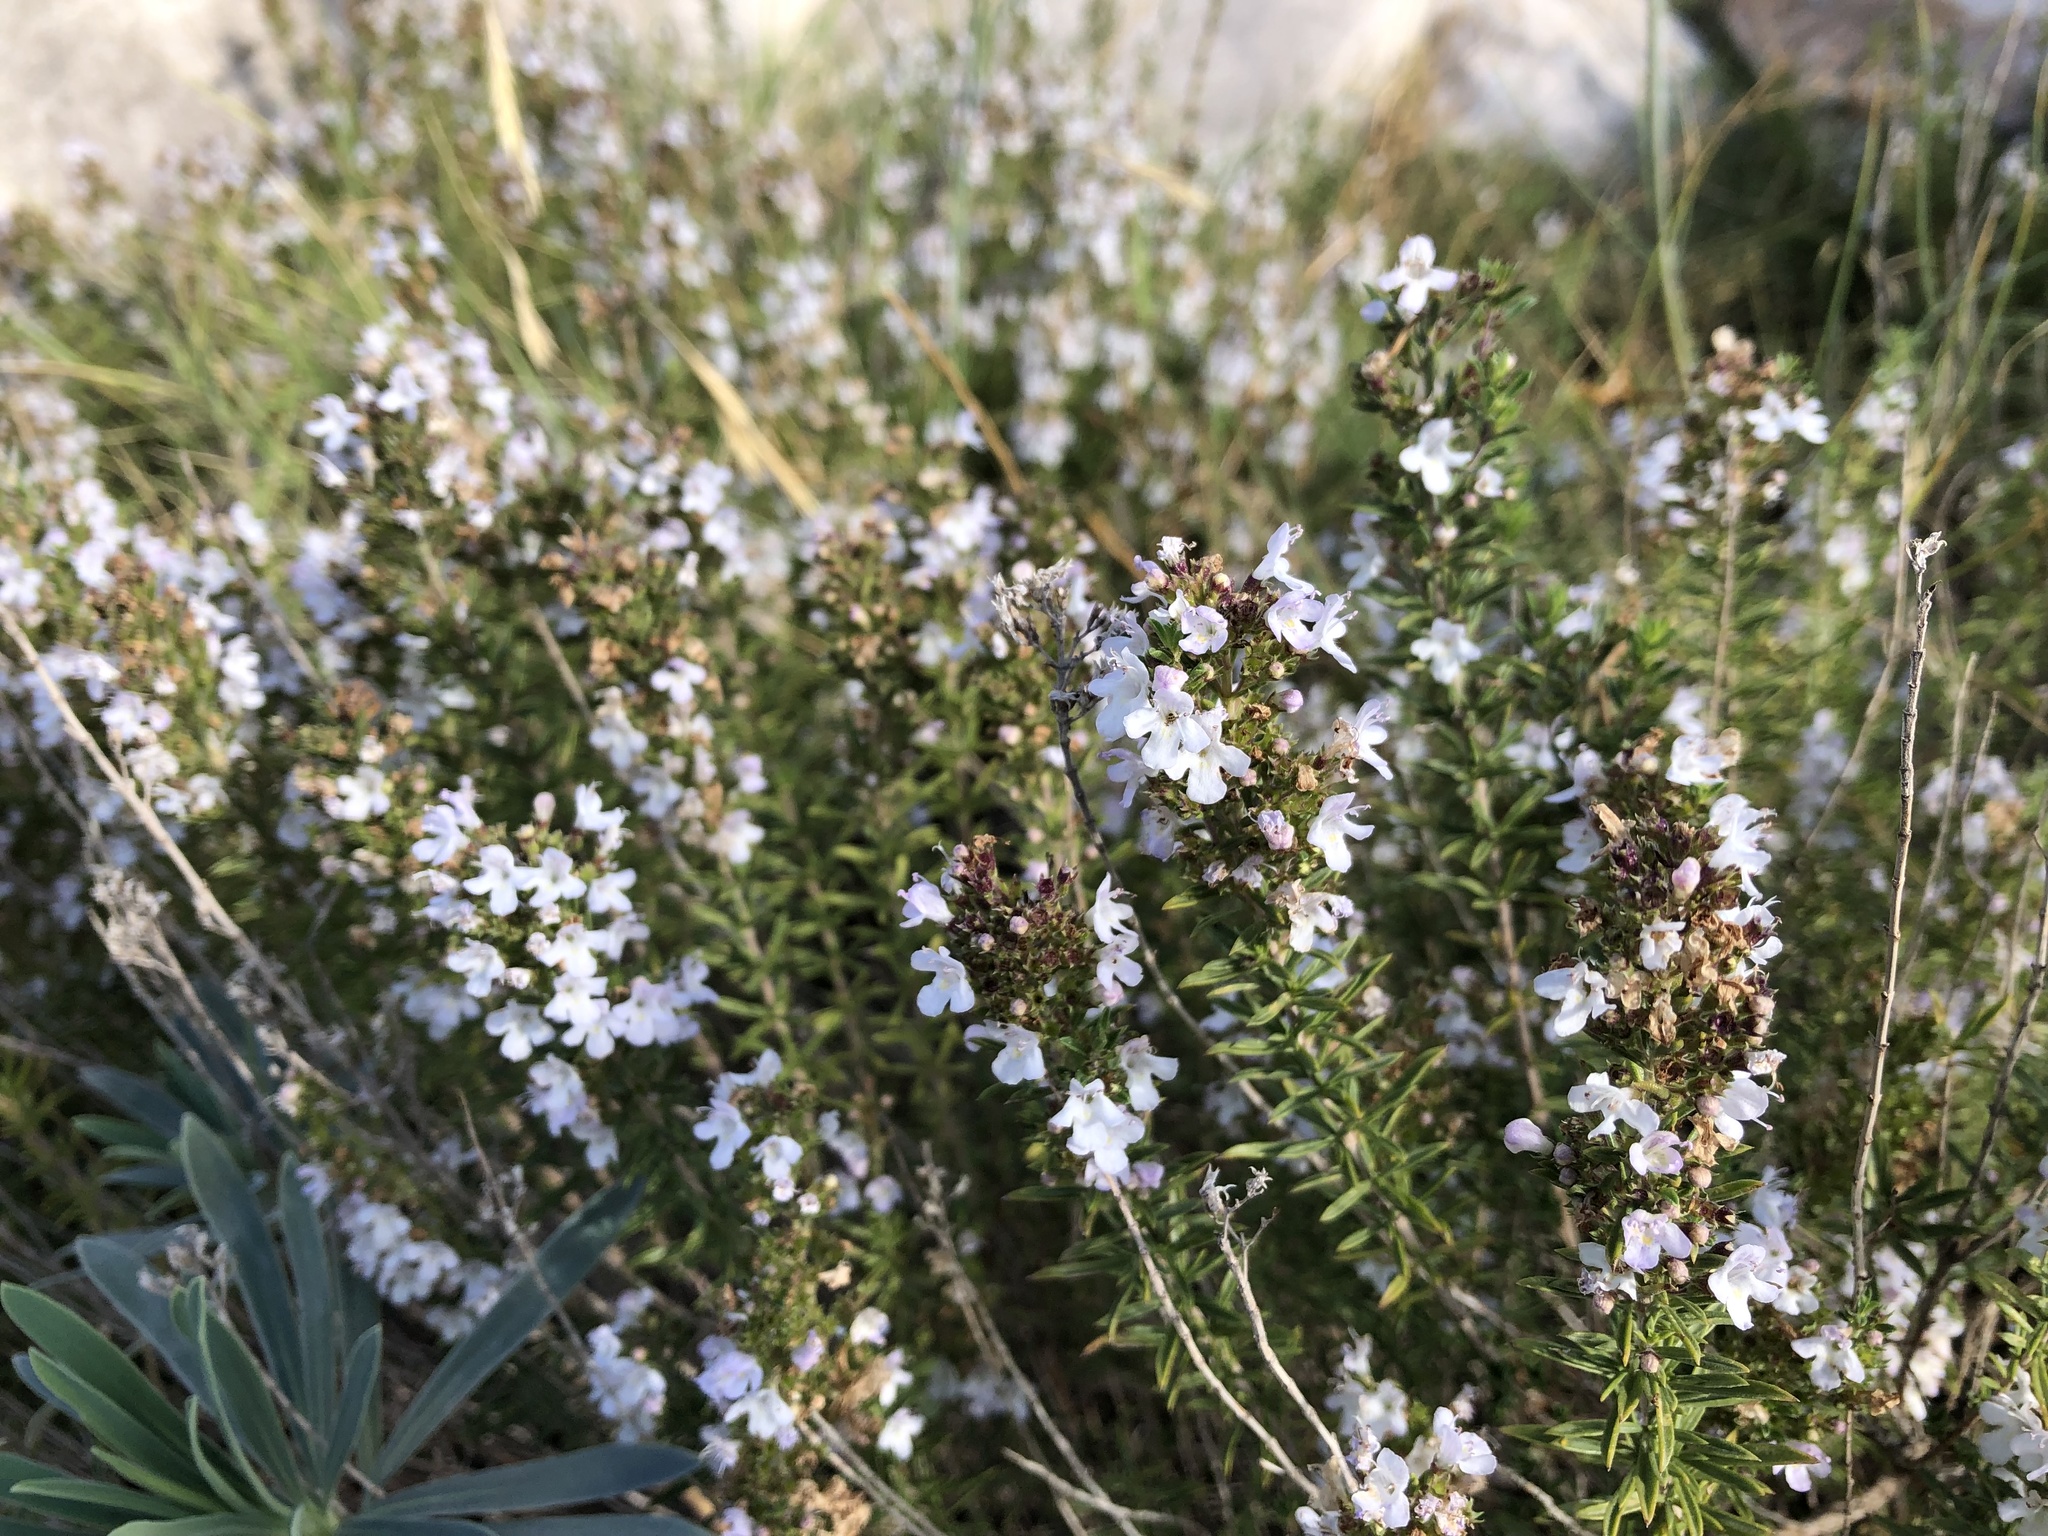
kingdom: Plantae
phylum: Tracheophyta
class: Magnoliopsida
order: Lamiales
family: Lamiaceae
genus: Satureja
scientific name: Satureja montana
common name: Winter savory
